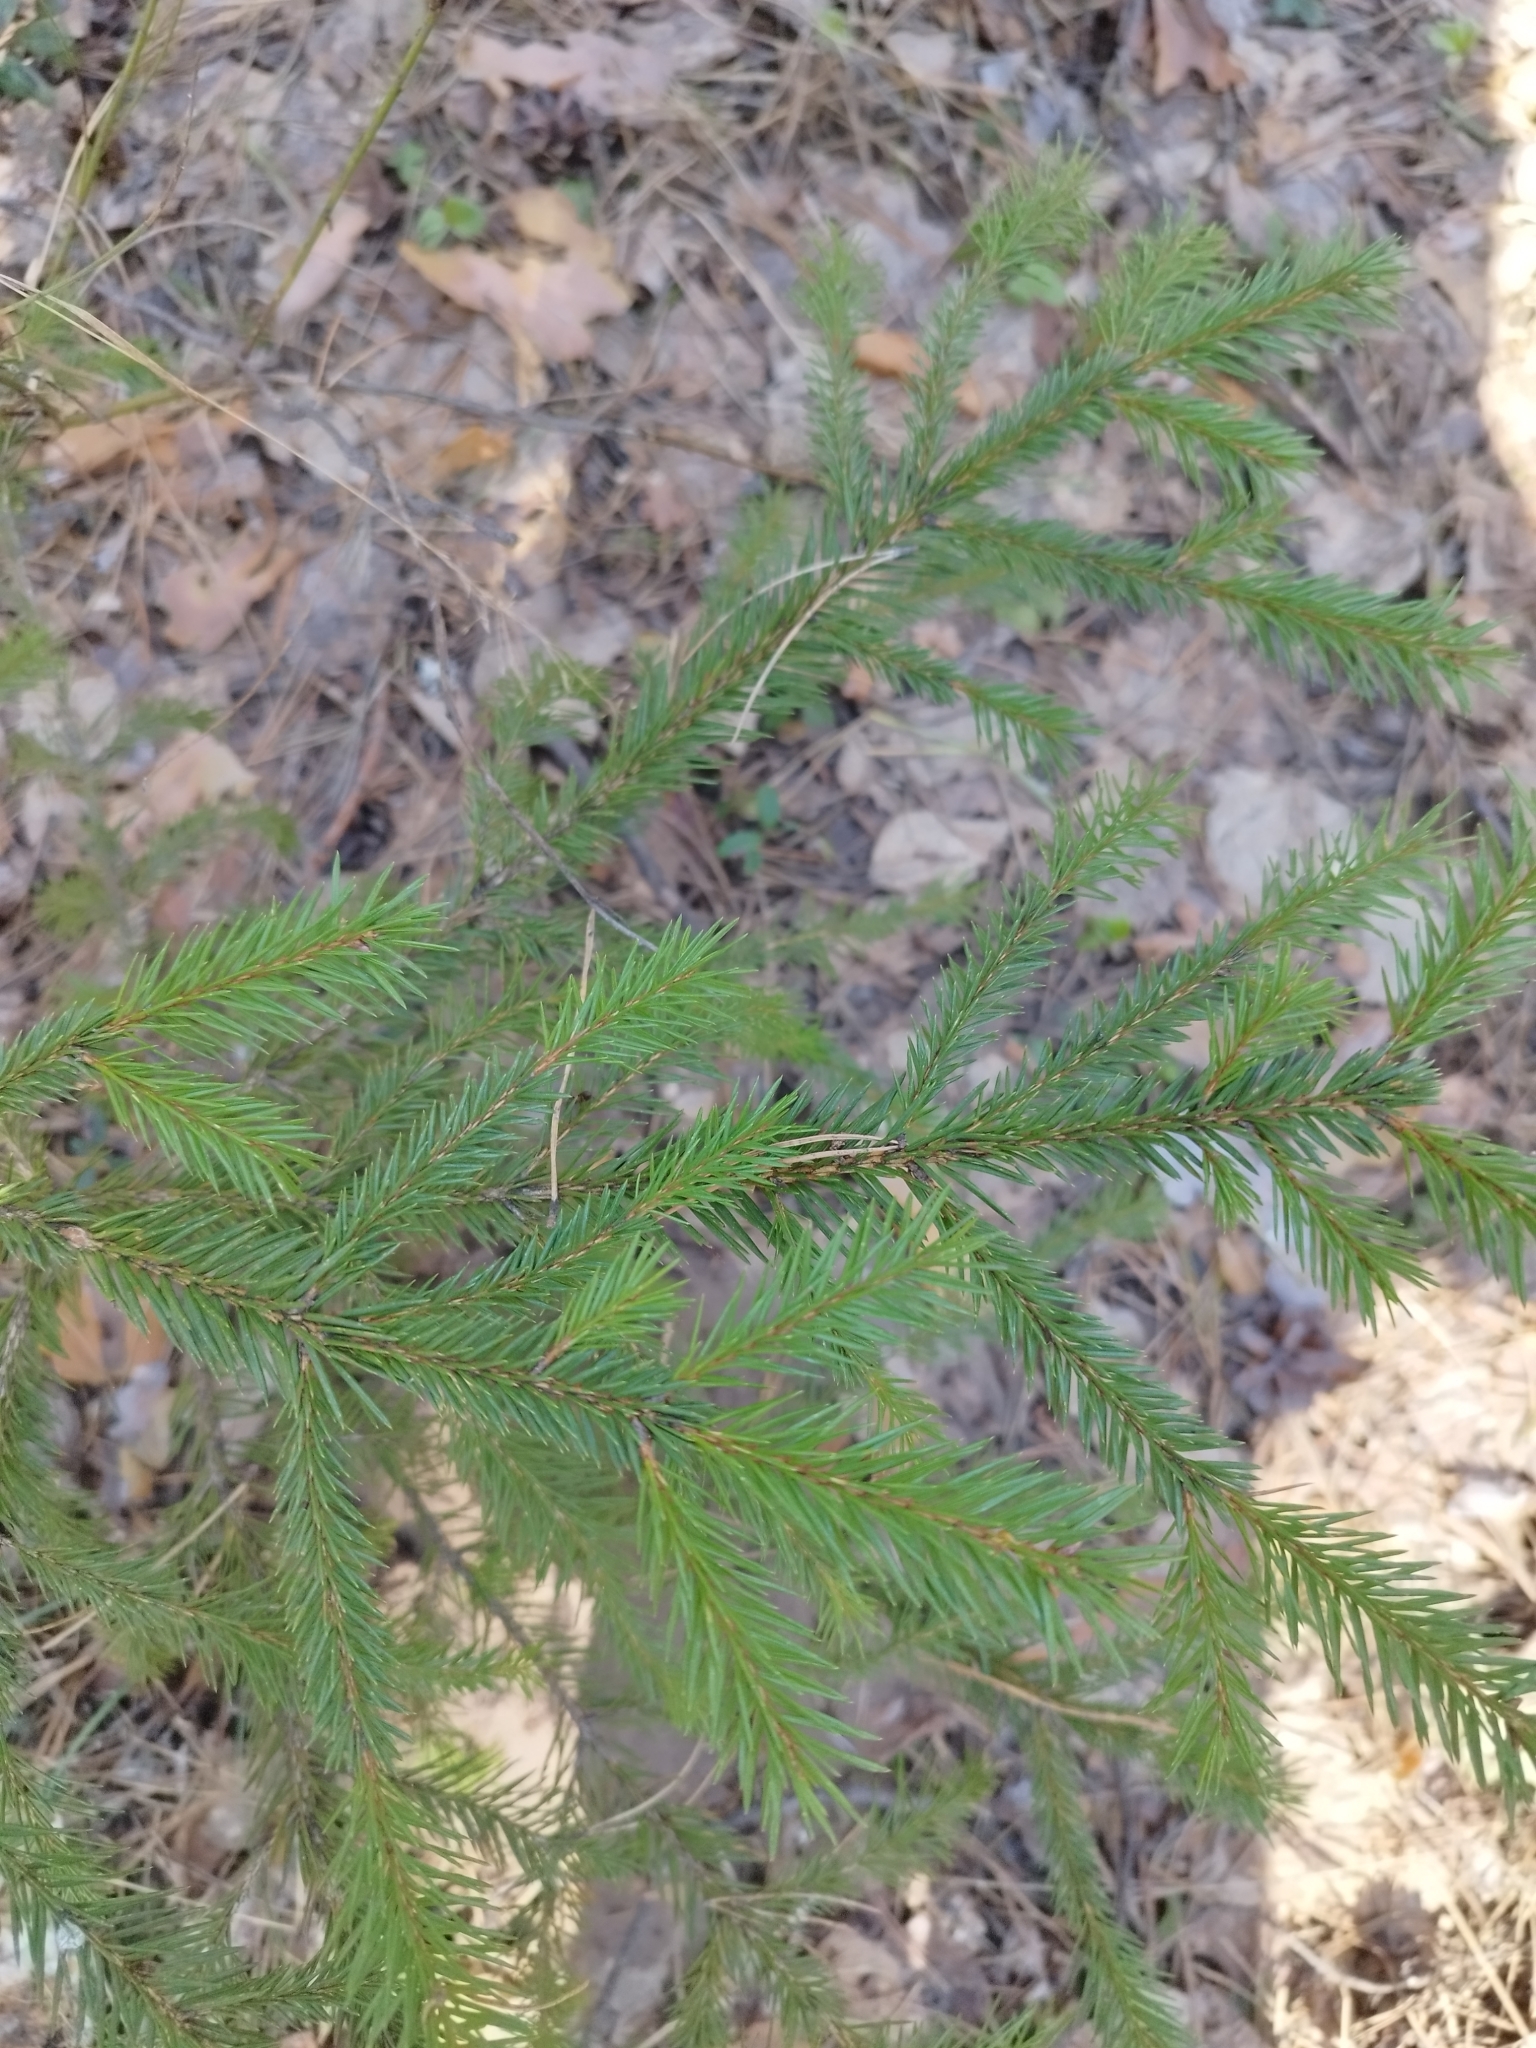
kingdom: Plantae
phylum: Tracheophyta
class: Pinopsida
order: Pinales
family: Pinaceae
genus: Picea
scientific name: Picea abies
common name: Norway spruce
